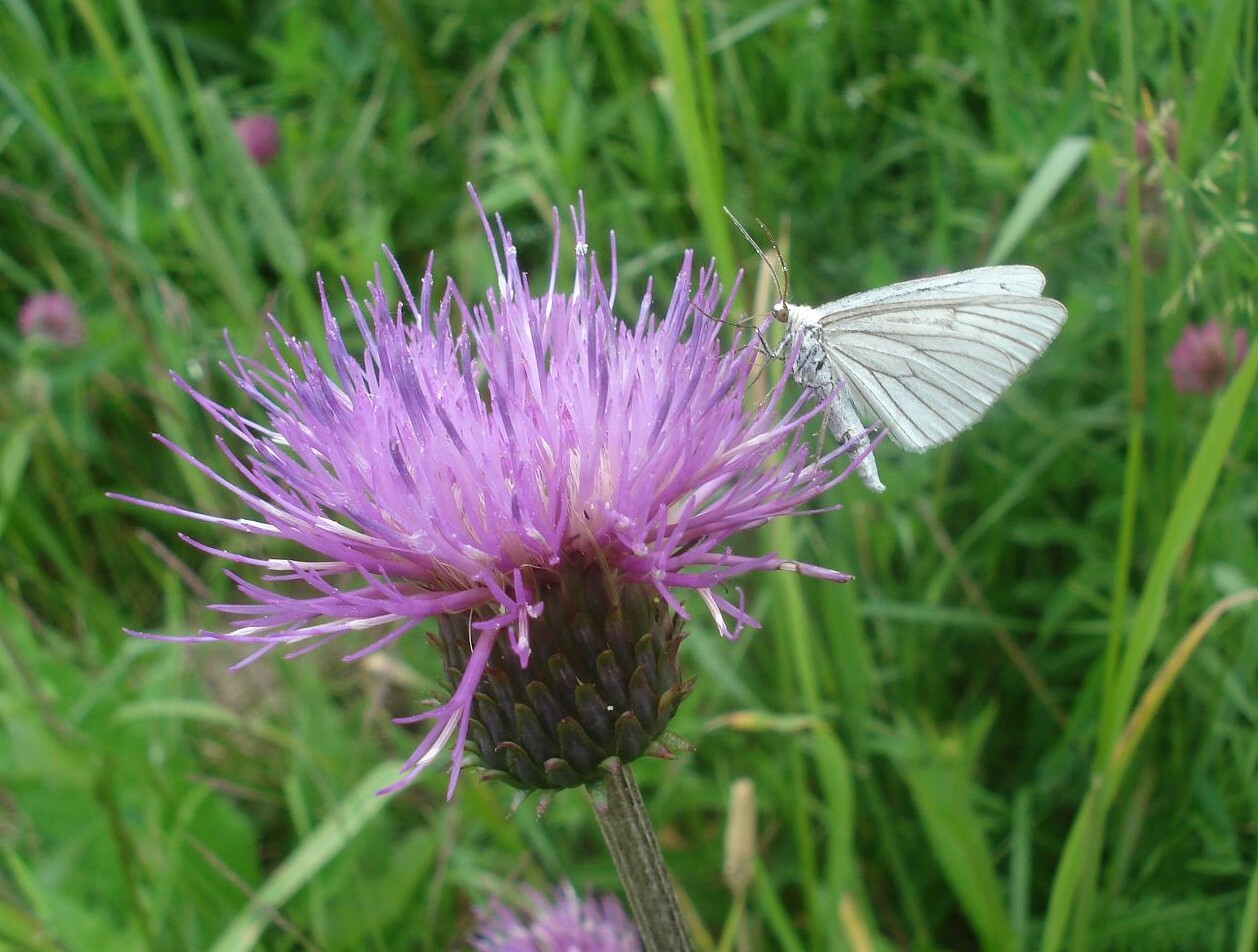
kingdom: Animalia
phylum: Arthropoda
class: Insecta
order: Lepidoptera
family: Geometridae
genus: Siona
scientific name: Siona lineata
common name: Black-veined moth
